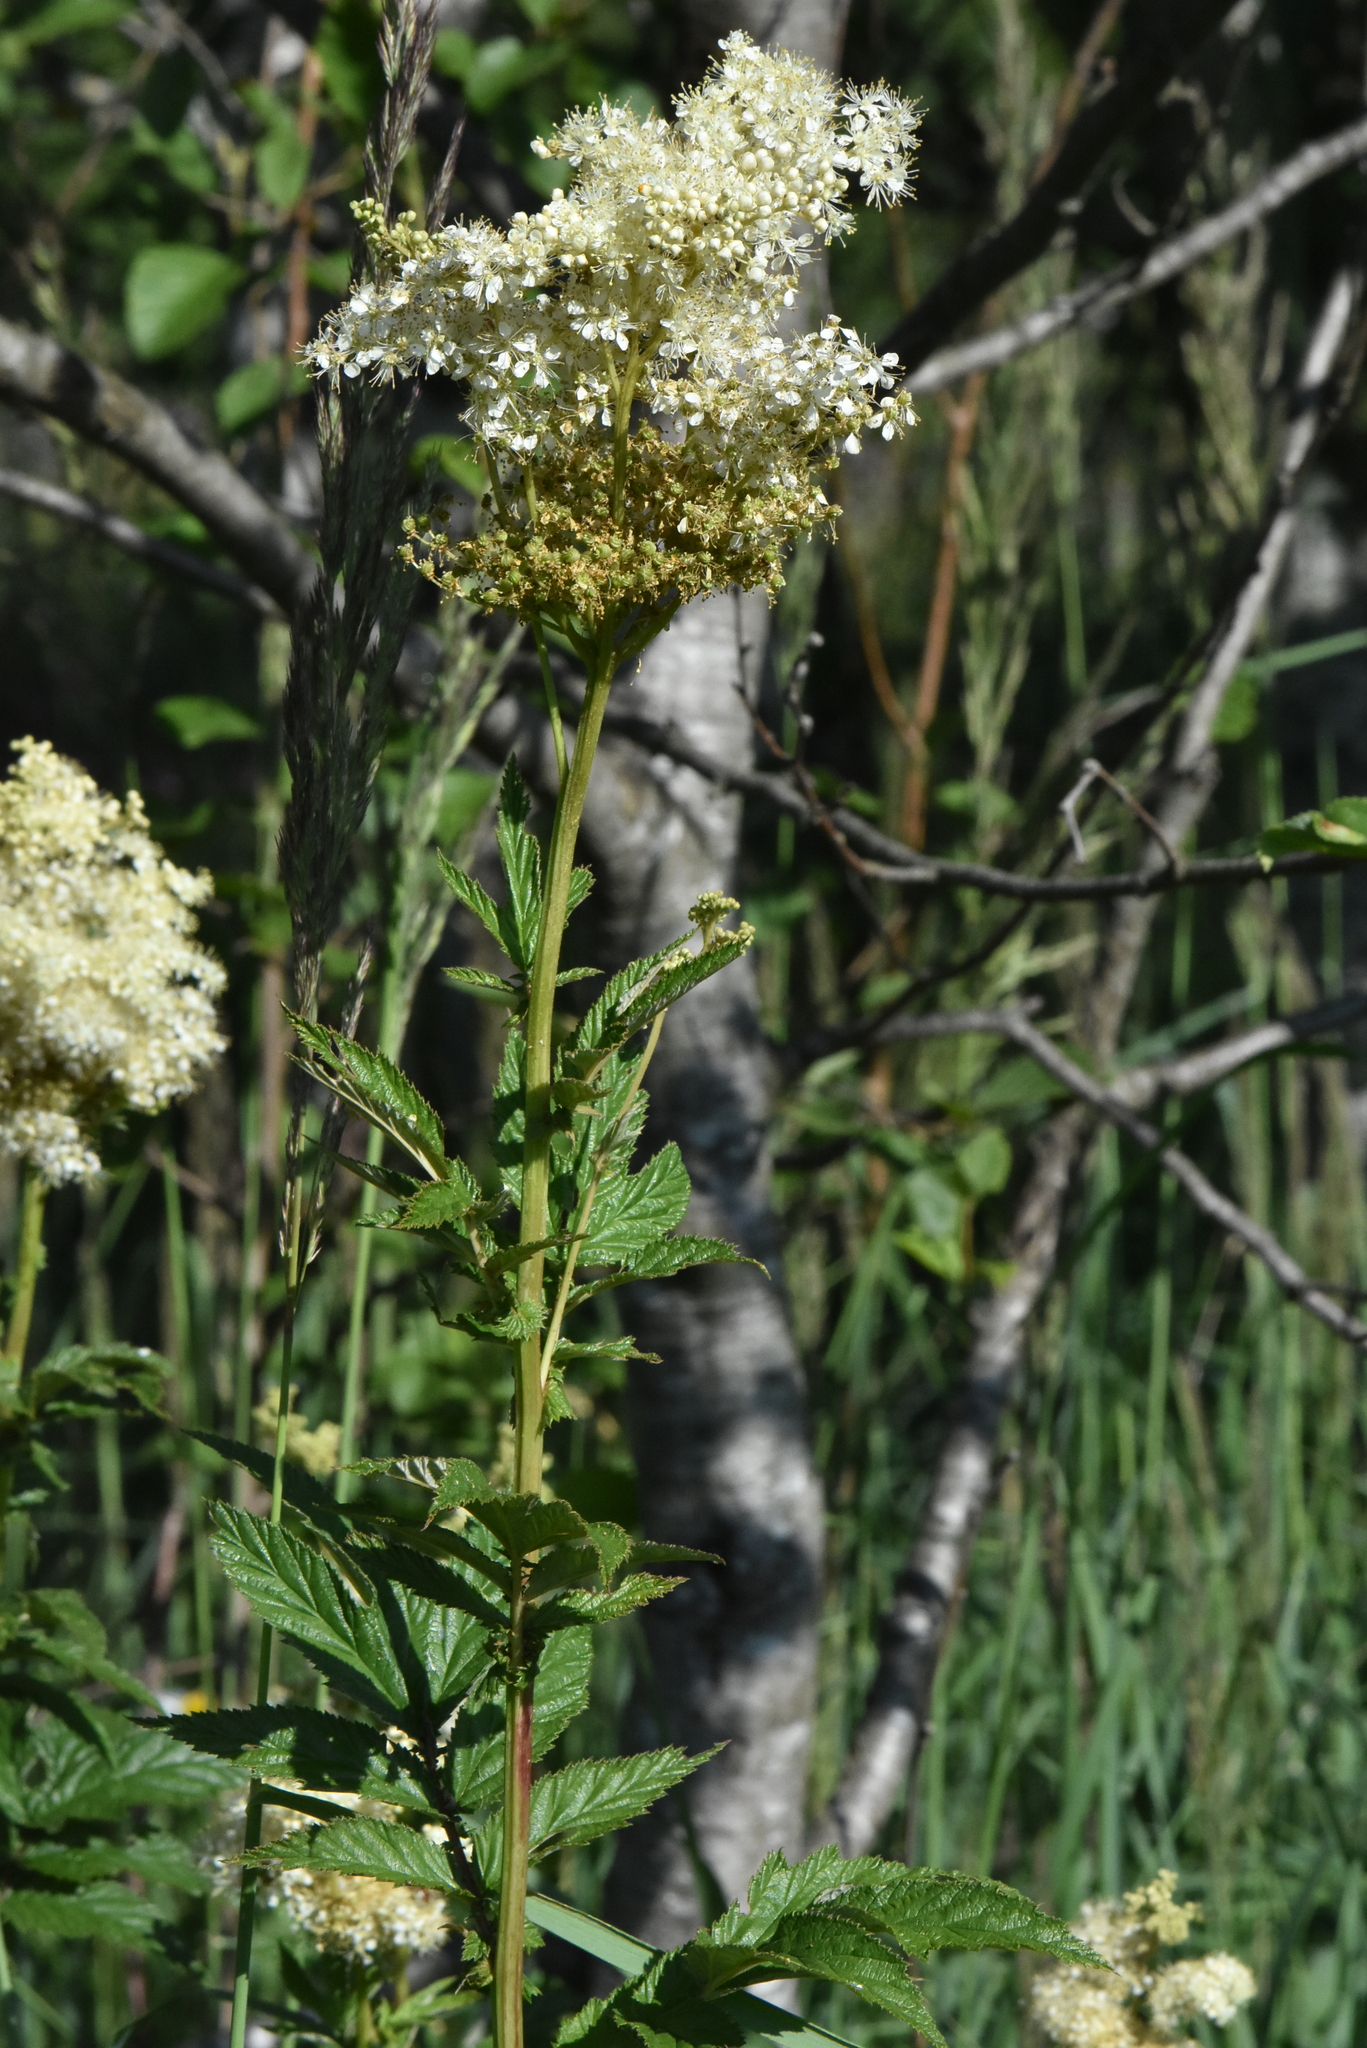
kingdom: Plantae
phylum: Tracheophyta
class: Magnoliopsida
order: Rosales
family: Rosaceae
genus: Filipendula
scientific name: Filipendula ulmaria
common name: Meadowsweet
